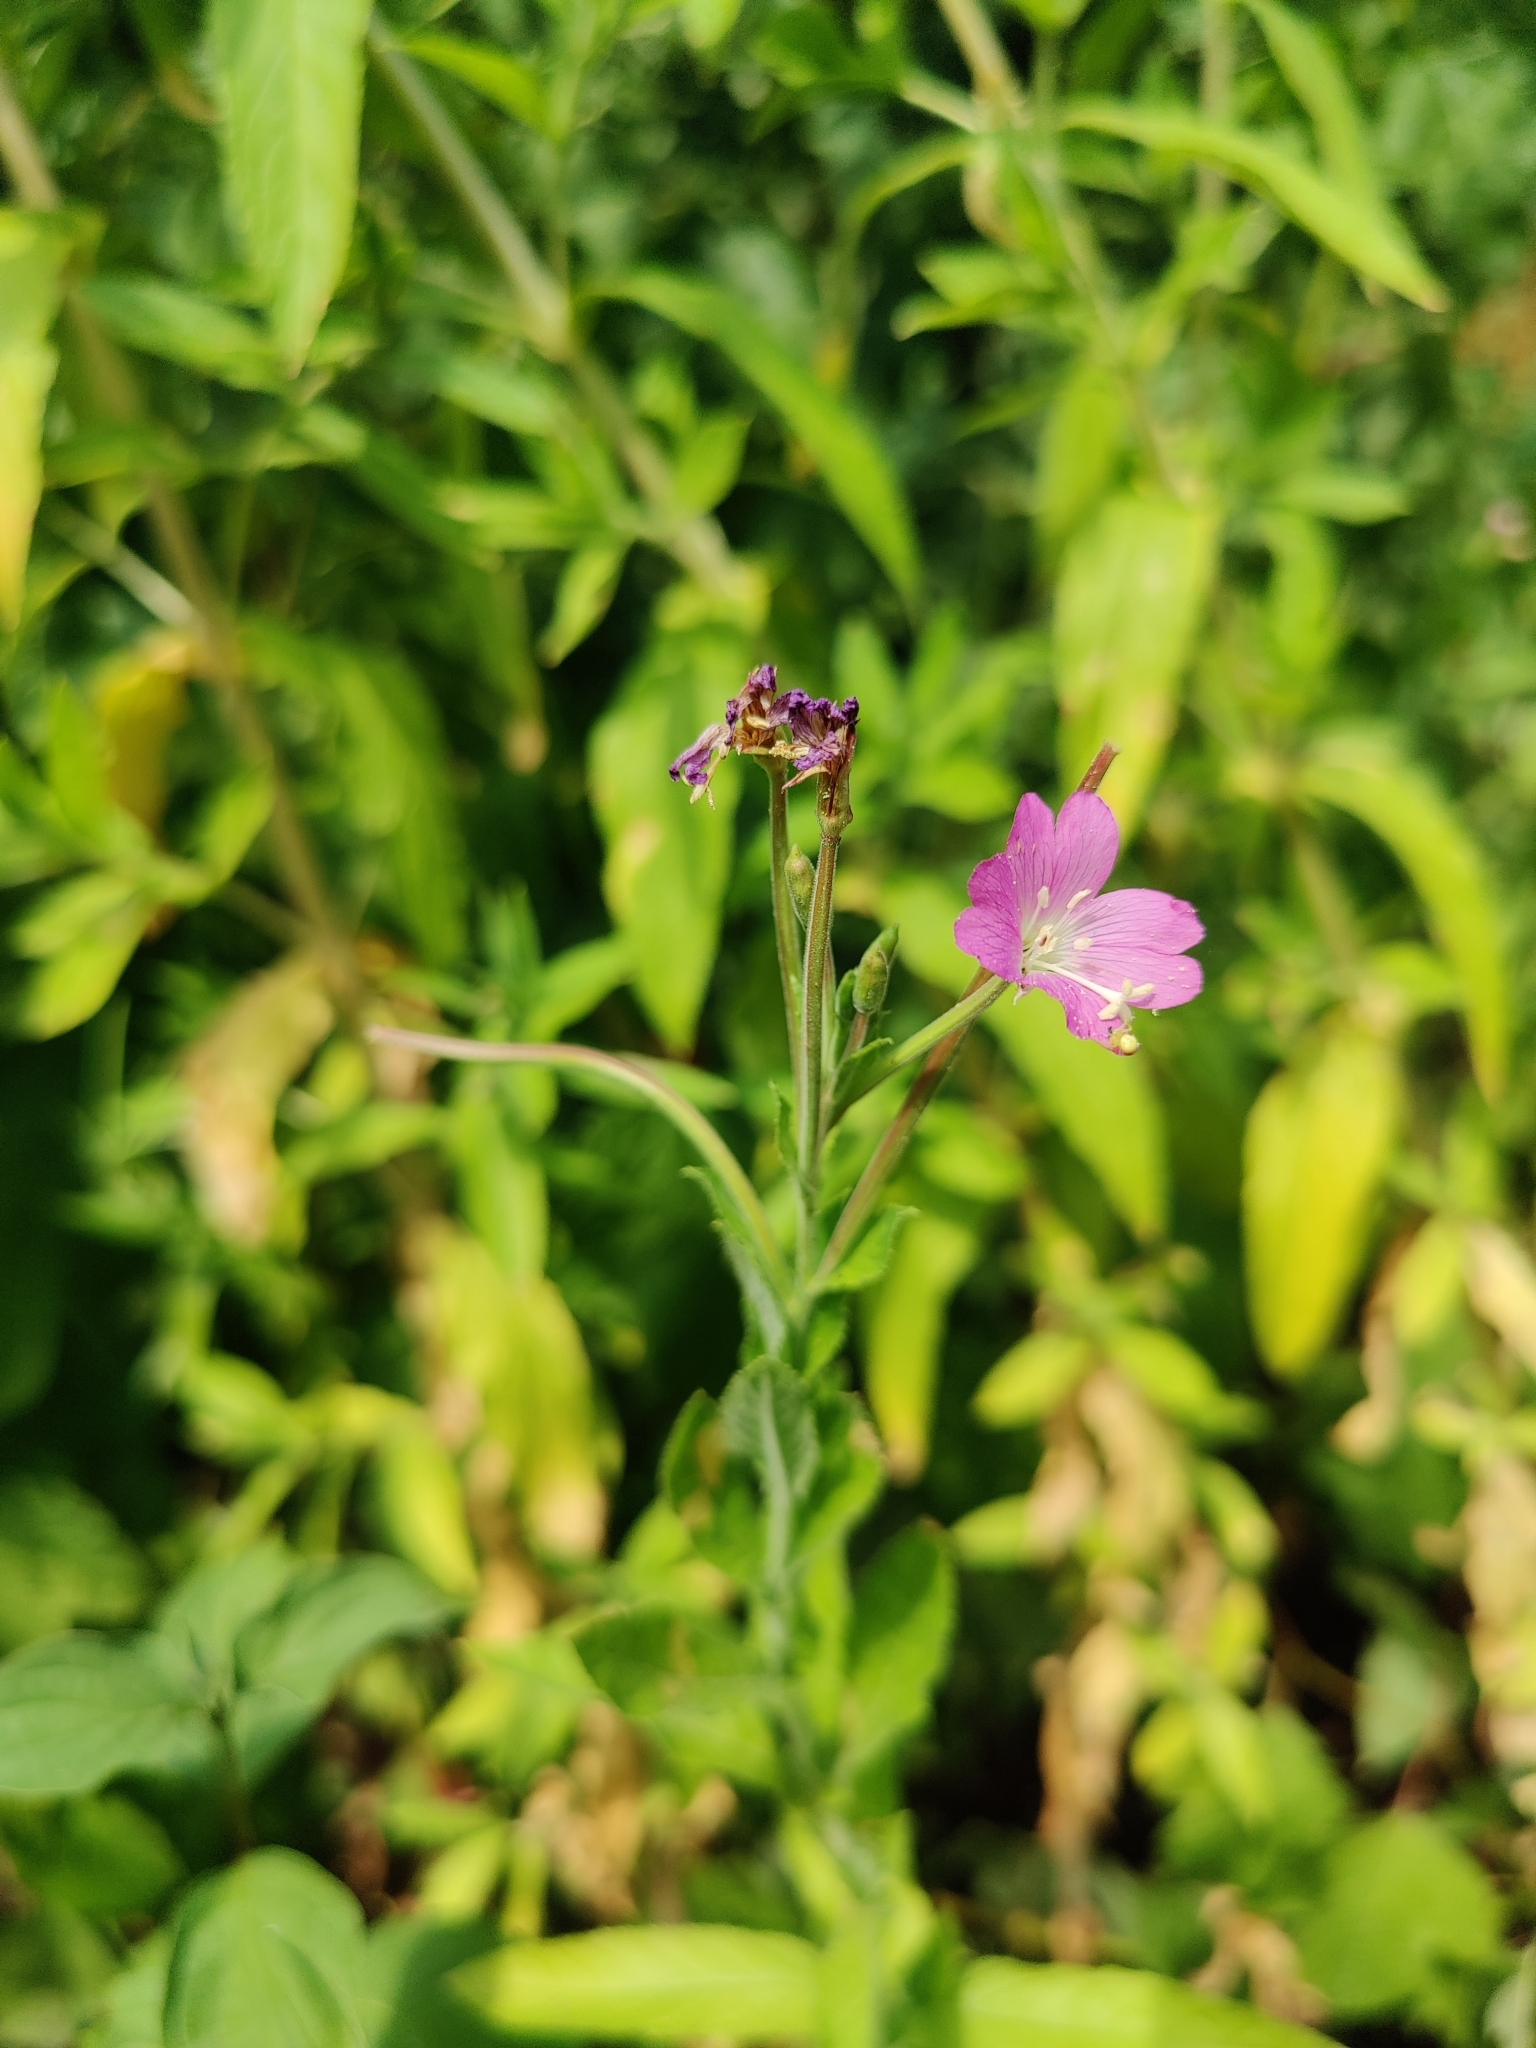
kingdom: Plantae
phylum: Tracheophyta
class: Magnoliopsida
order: Myrtales
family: Onagraceae
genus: Epilobium
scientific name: Epilobium hirsutum
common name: Great willowherb
